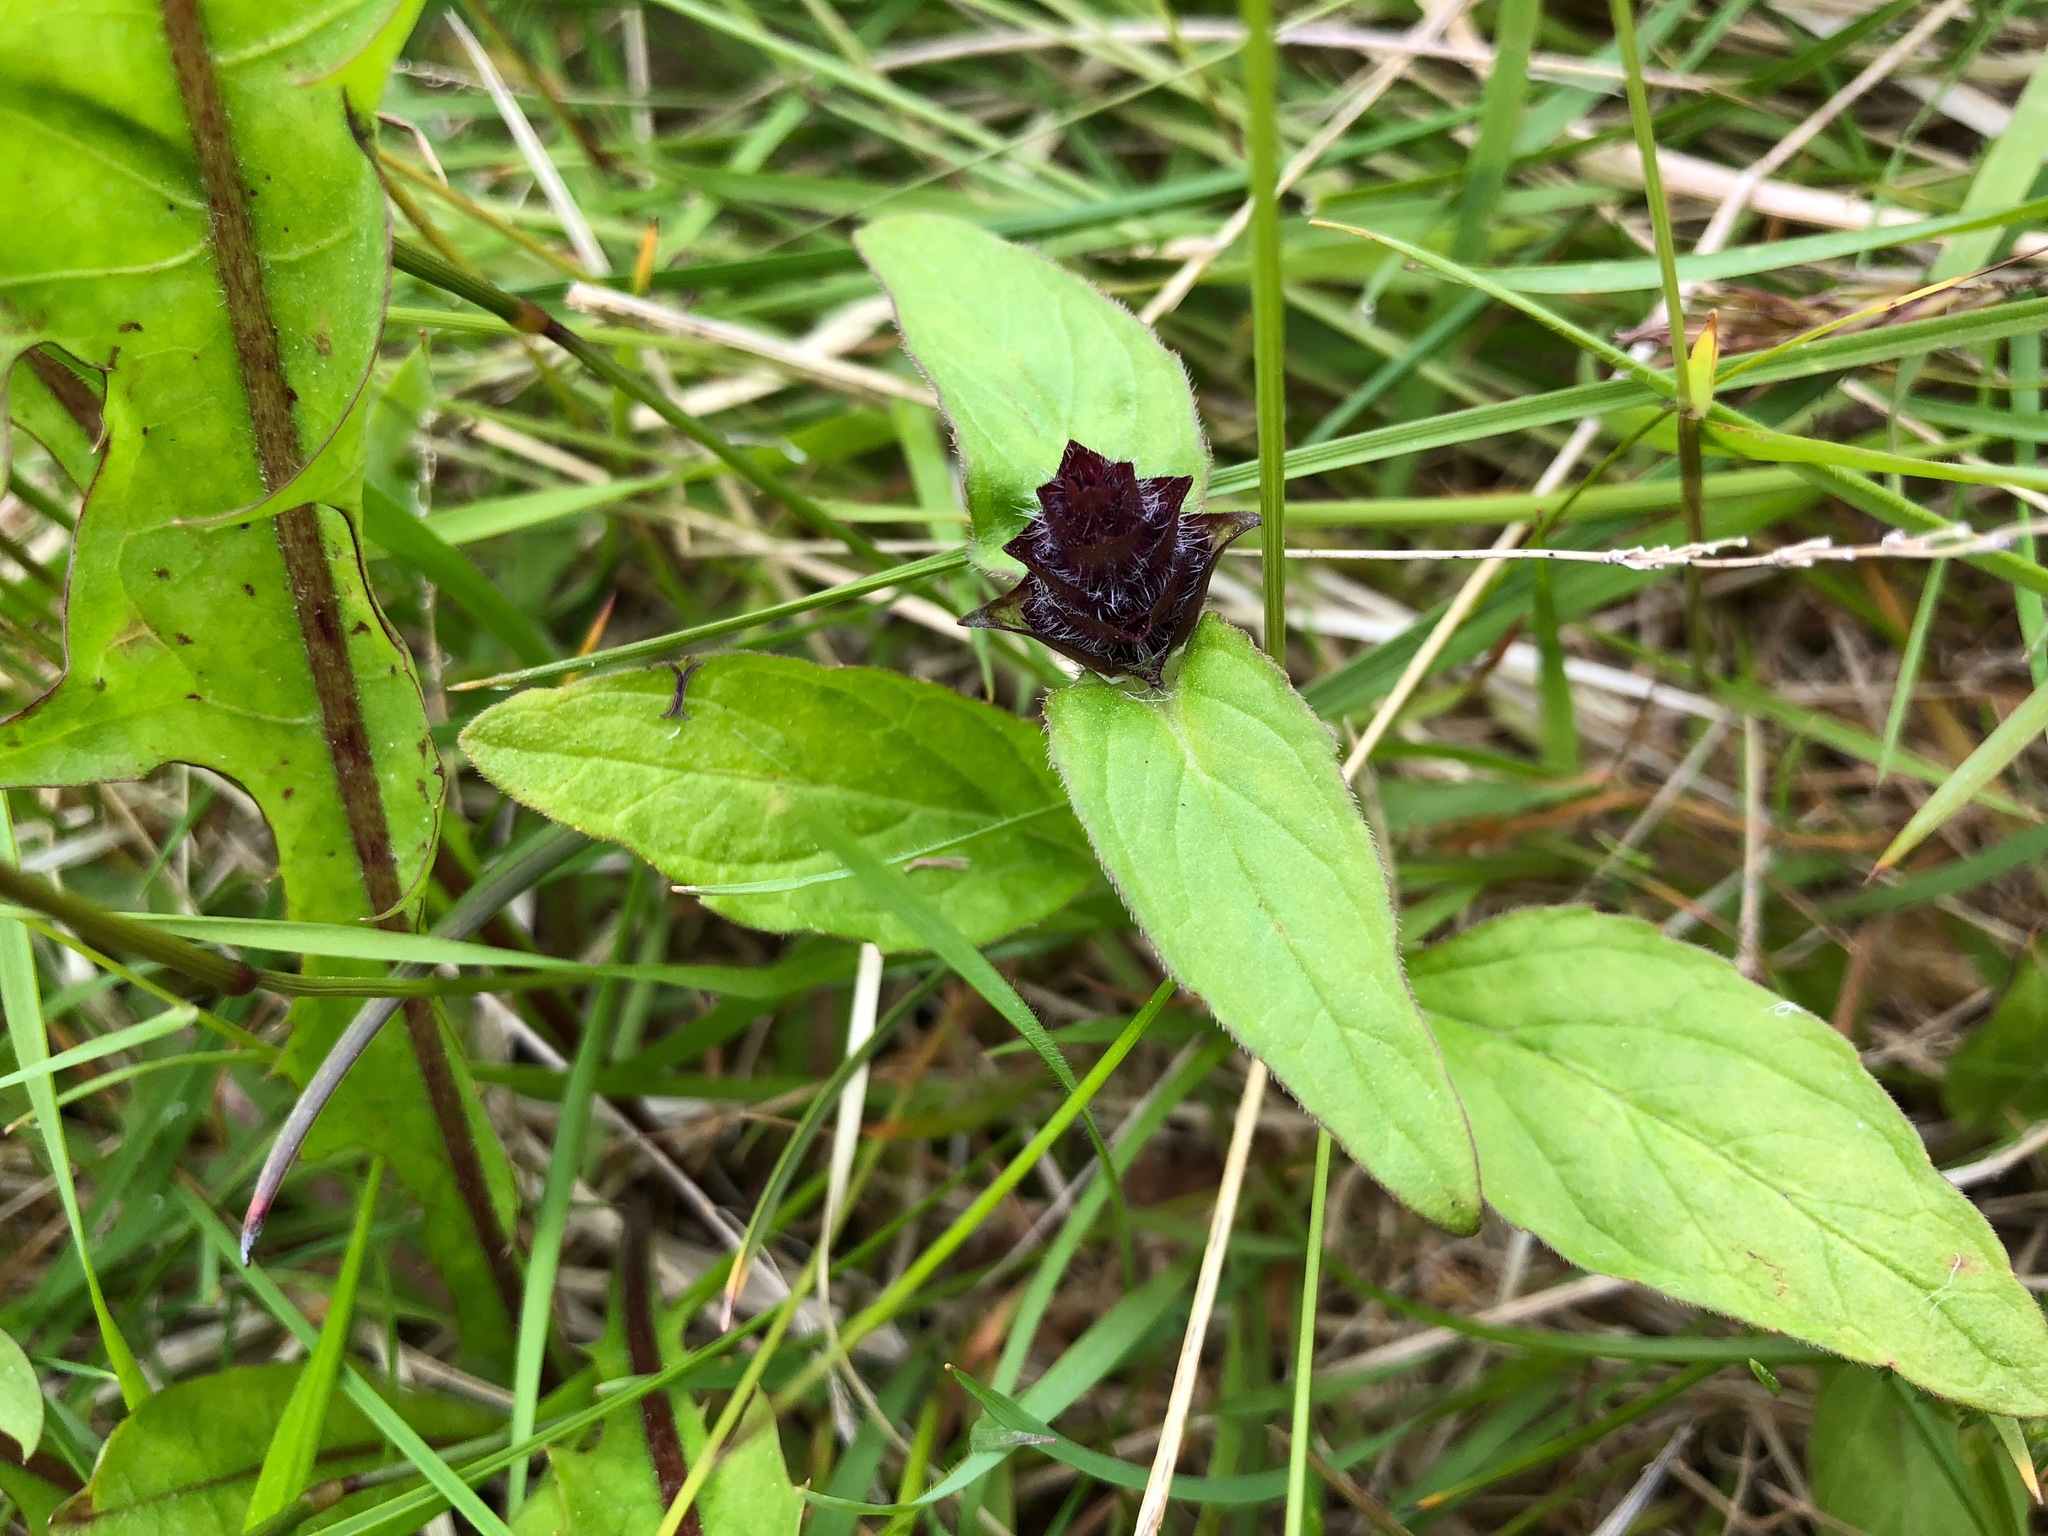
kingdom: Plantae
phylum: Tracheophyta
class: Magnoliopsida
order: Lamiales
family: Lamiaceae
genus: Prunella
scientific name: Prunella vulgaris
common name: Heal-all
